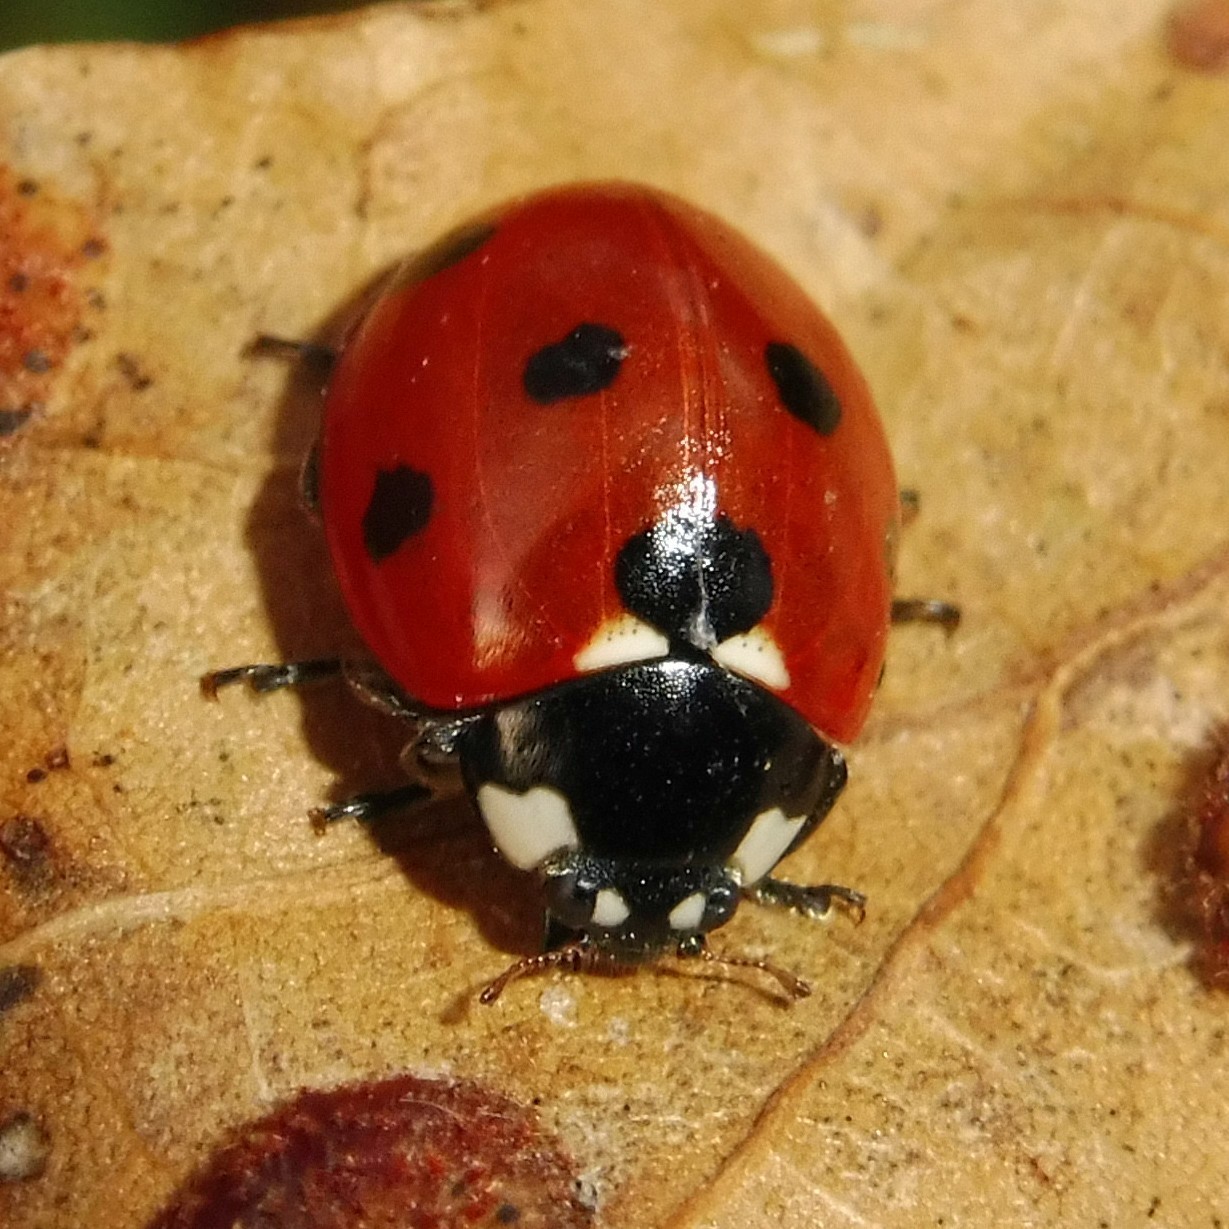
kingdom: Animalia
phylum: Arthropoda
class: Insecta
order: Coleoptera
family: Coccinellidae
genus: Coccinella
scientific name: Coccinella septempunctata
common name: Sevenspotted lady beetle
